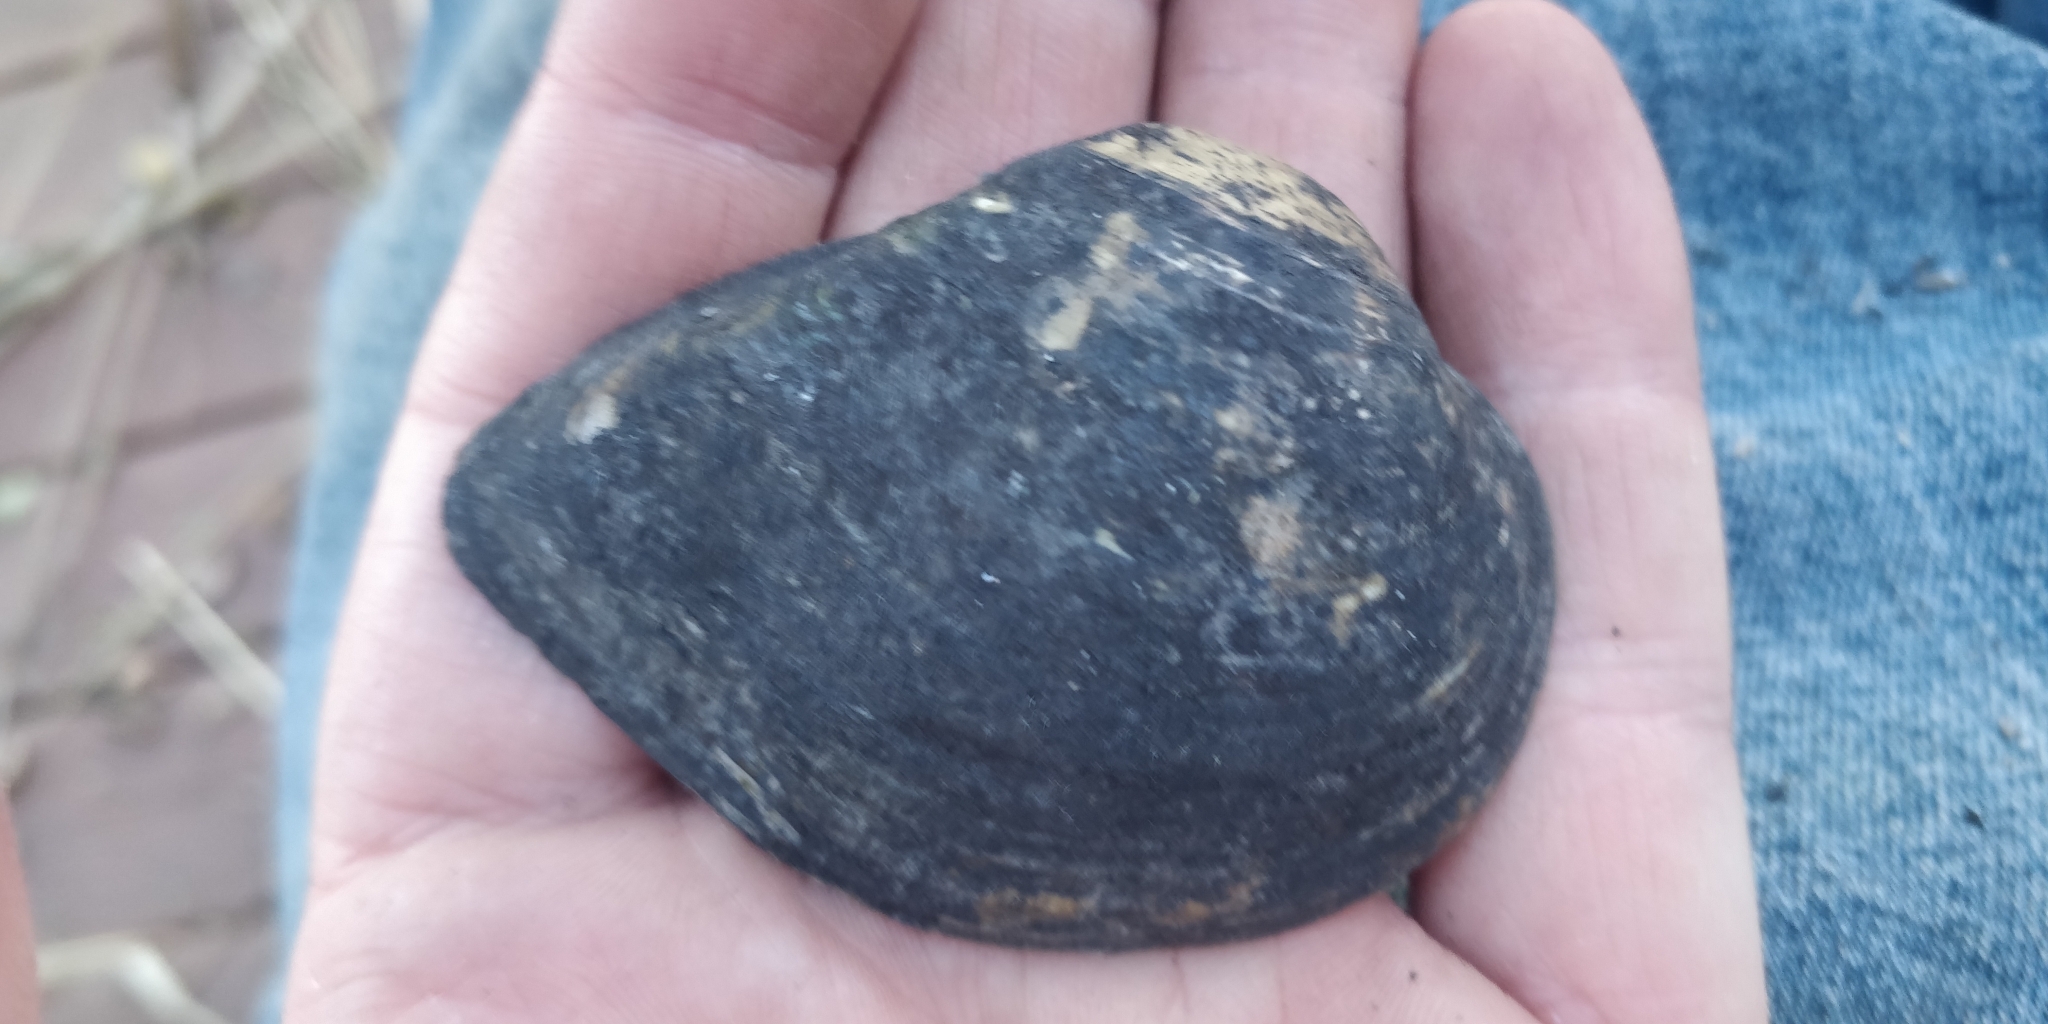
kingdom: Animalia
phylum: Mollusca
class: Bivalvia
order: Unionida
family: Unionidae
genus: Truncilla
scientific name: Truncilla truncata
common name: Deertoe
